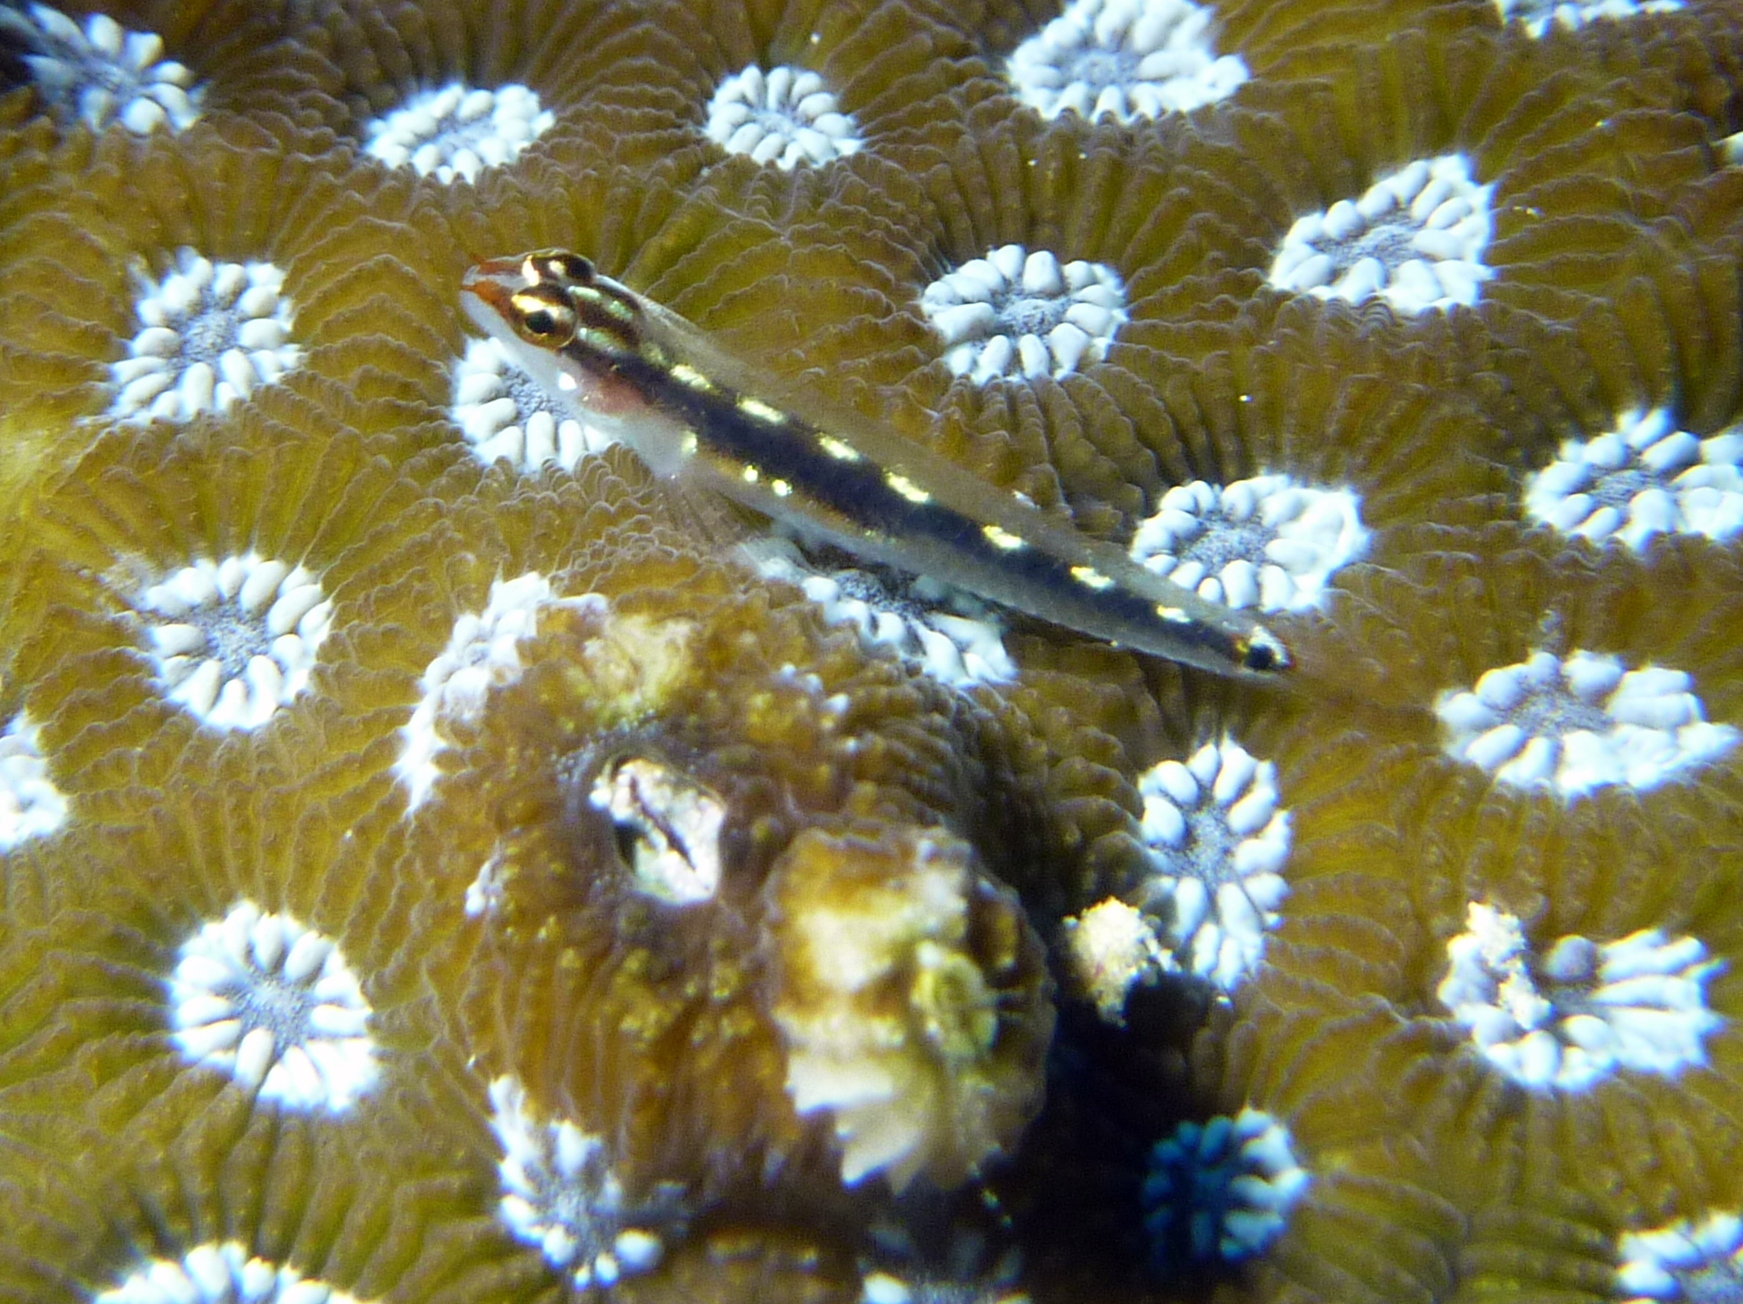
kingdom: Animalia
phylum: Chordata
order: Perciformes
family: Gobiidae
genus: Eviota
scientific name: Eviota sebreei
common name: Sebree's pygmy goby
